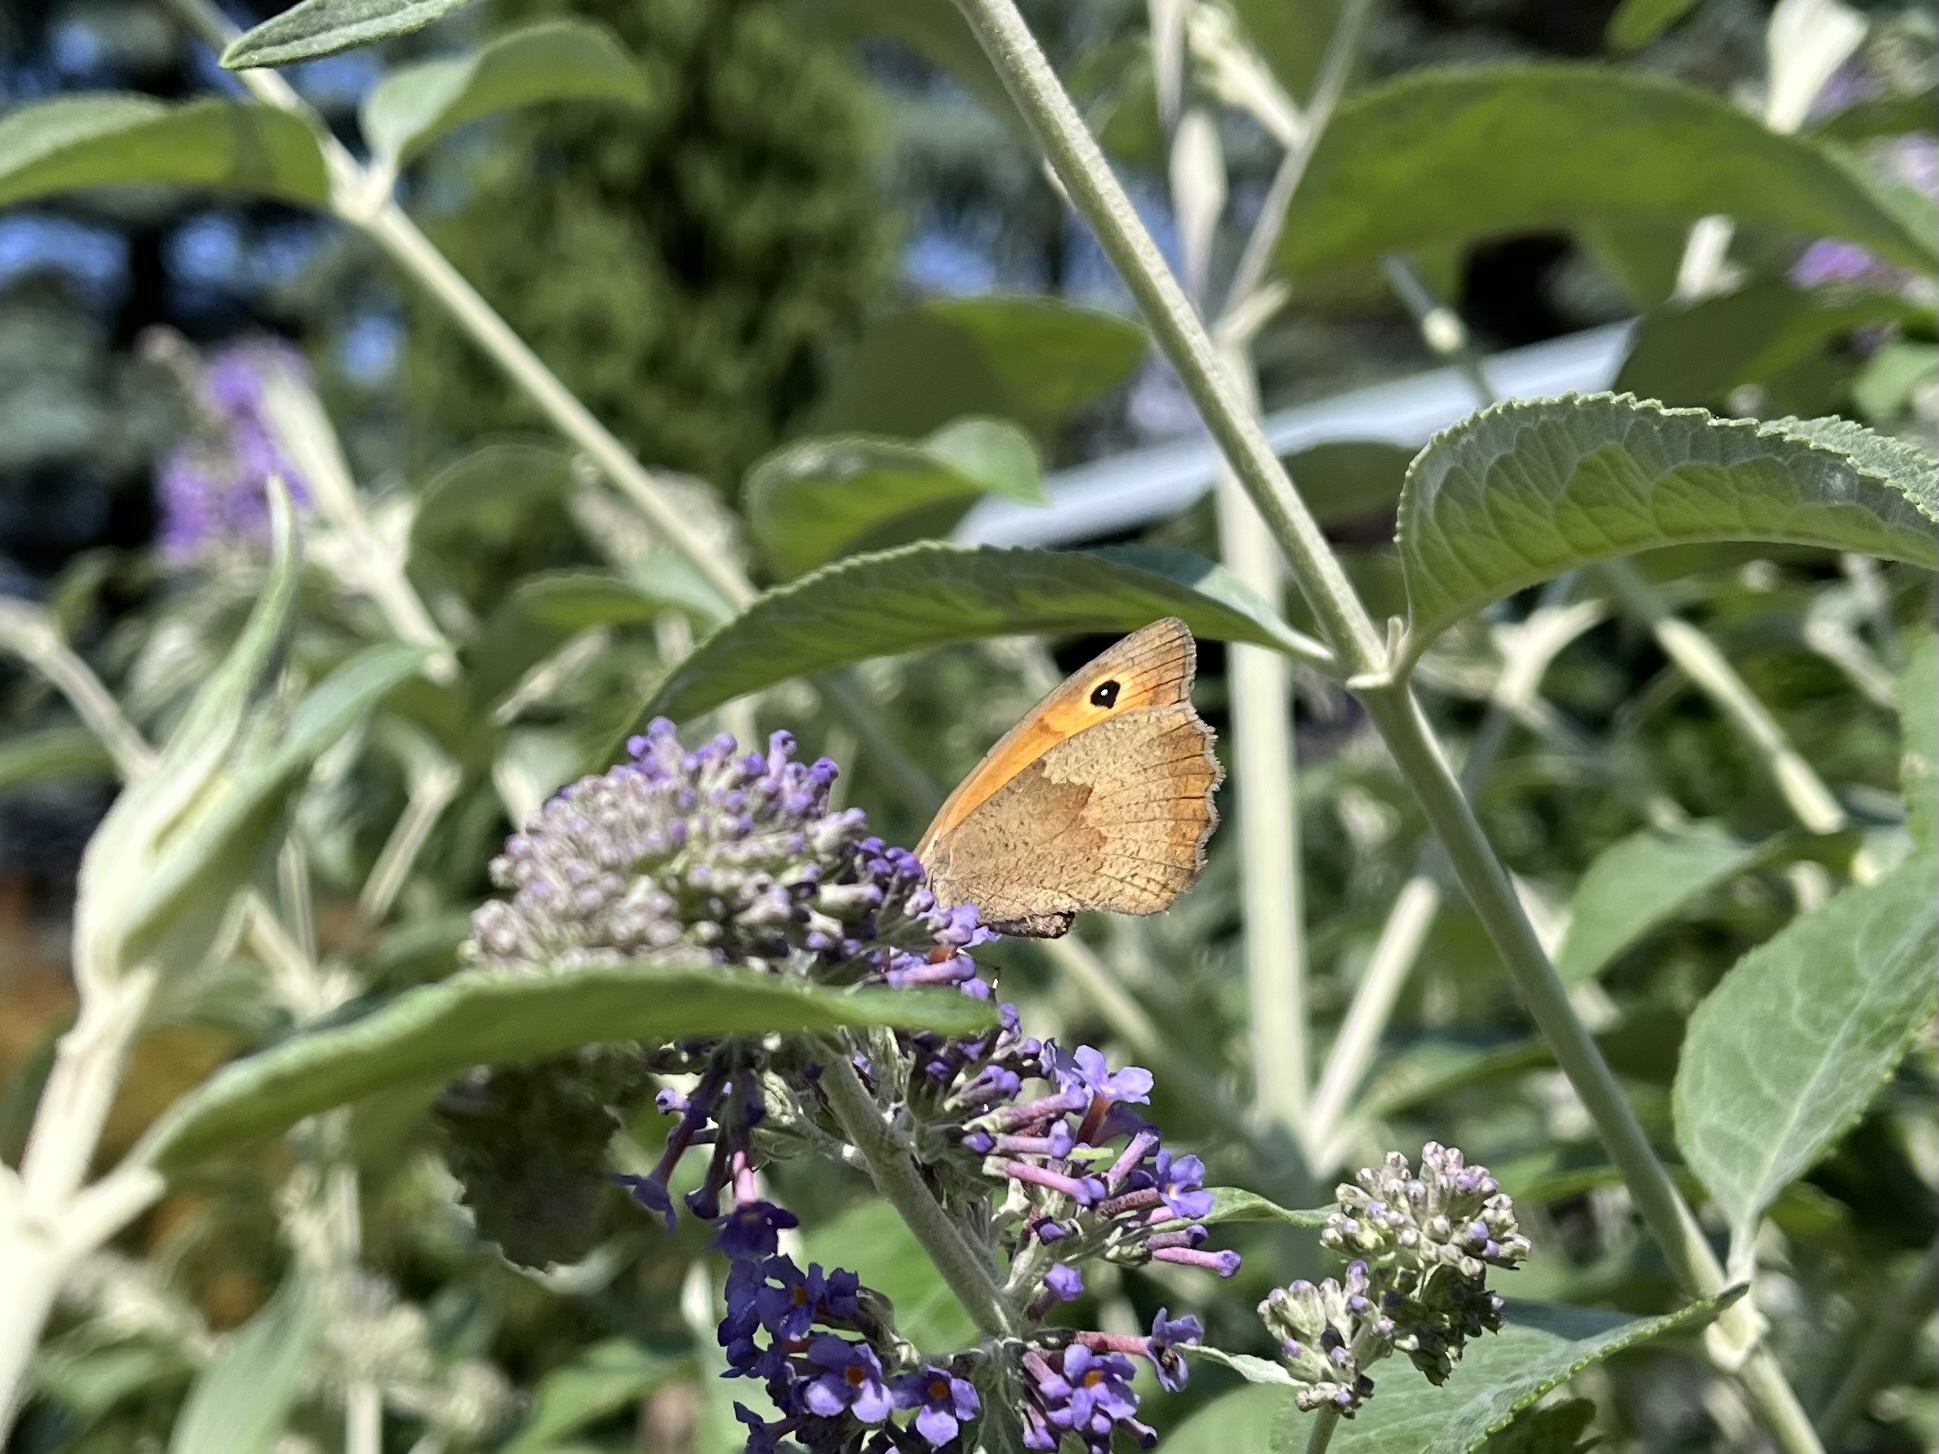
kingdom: Animalia
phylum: Arthropoda
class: Insecta
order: Lepidoptera
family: Nymphalidae
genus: Maniola
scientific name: Maniola jurtina
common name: Meadow brown
